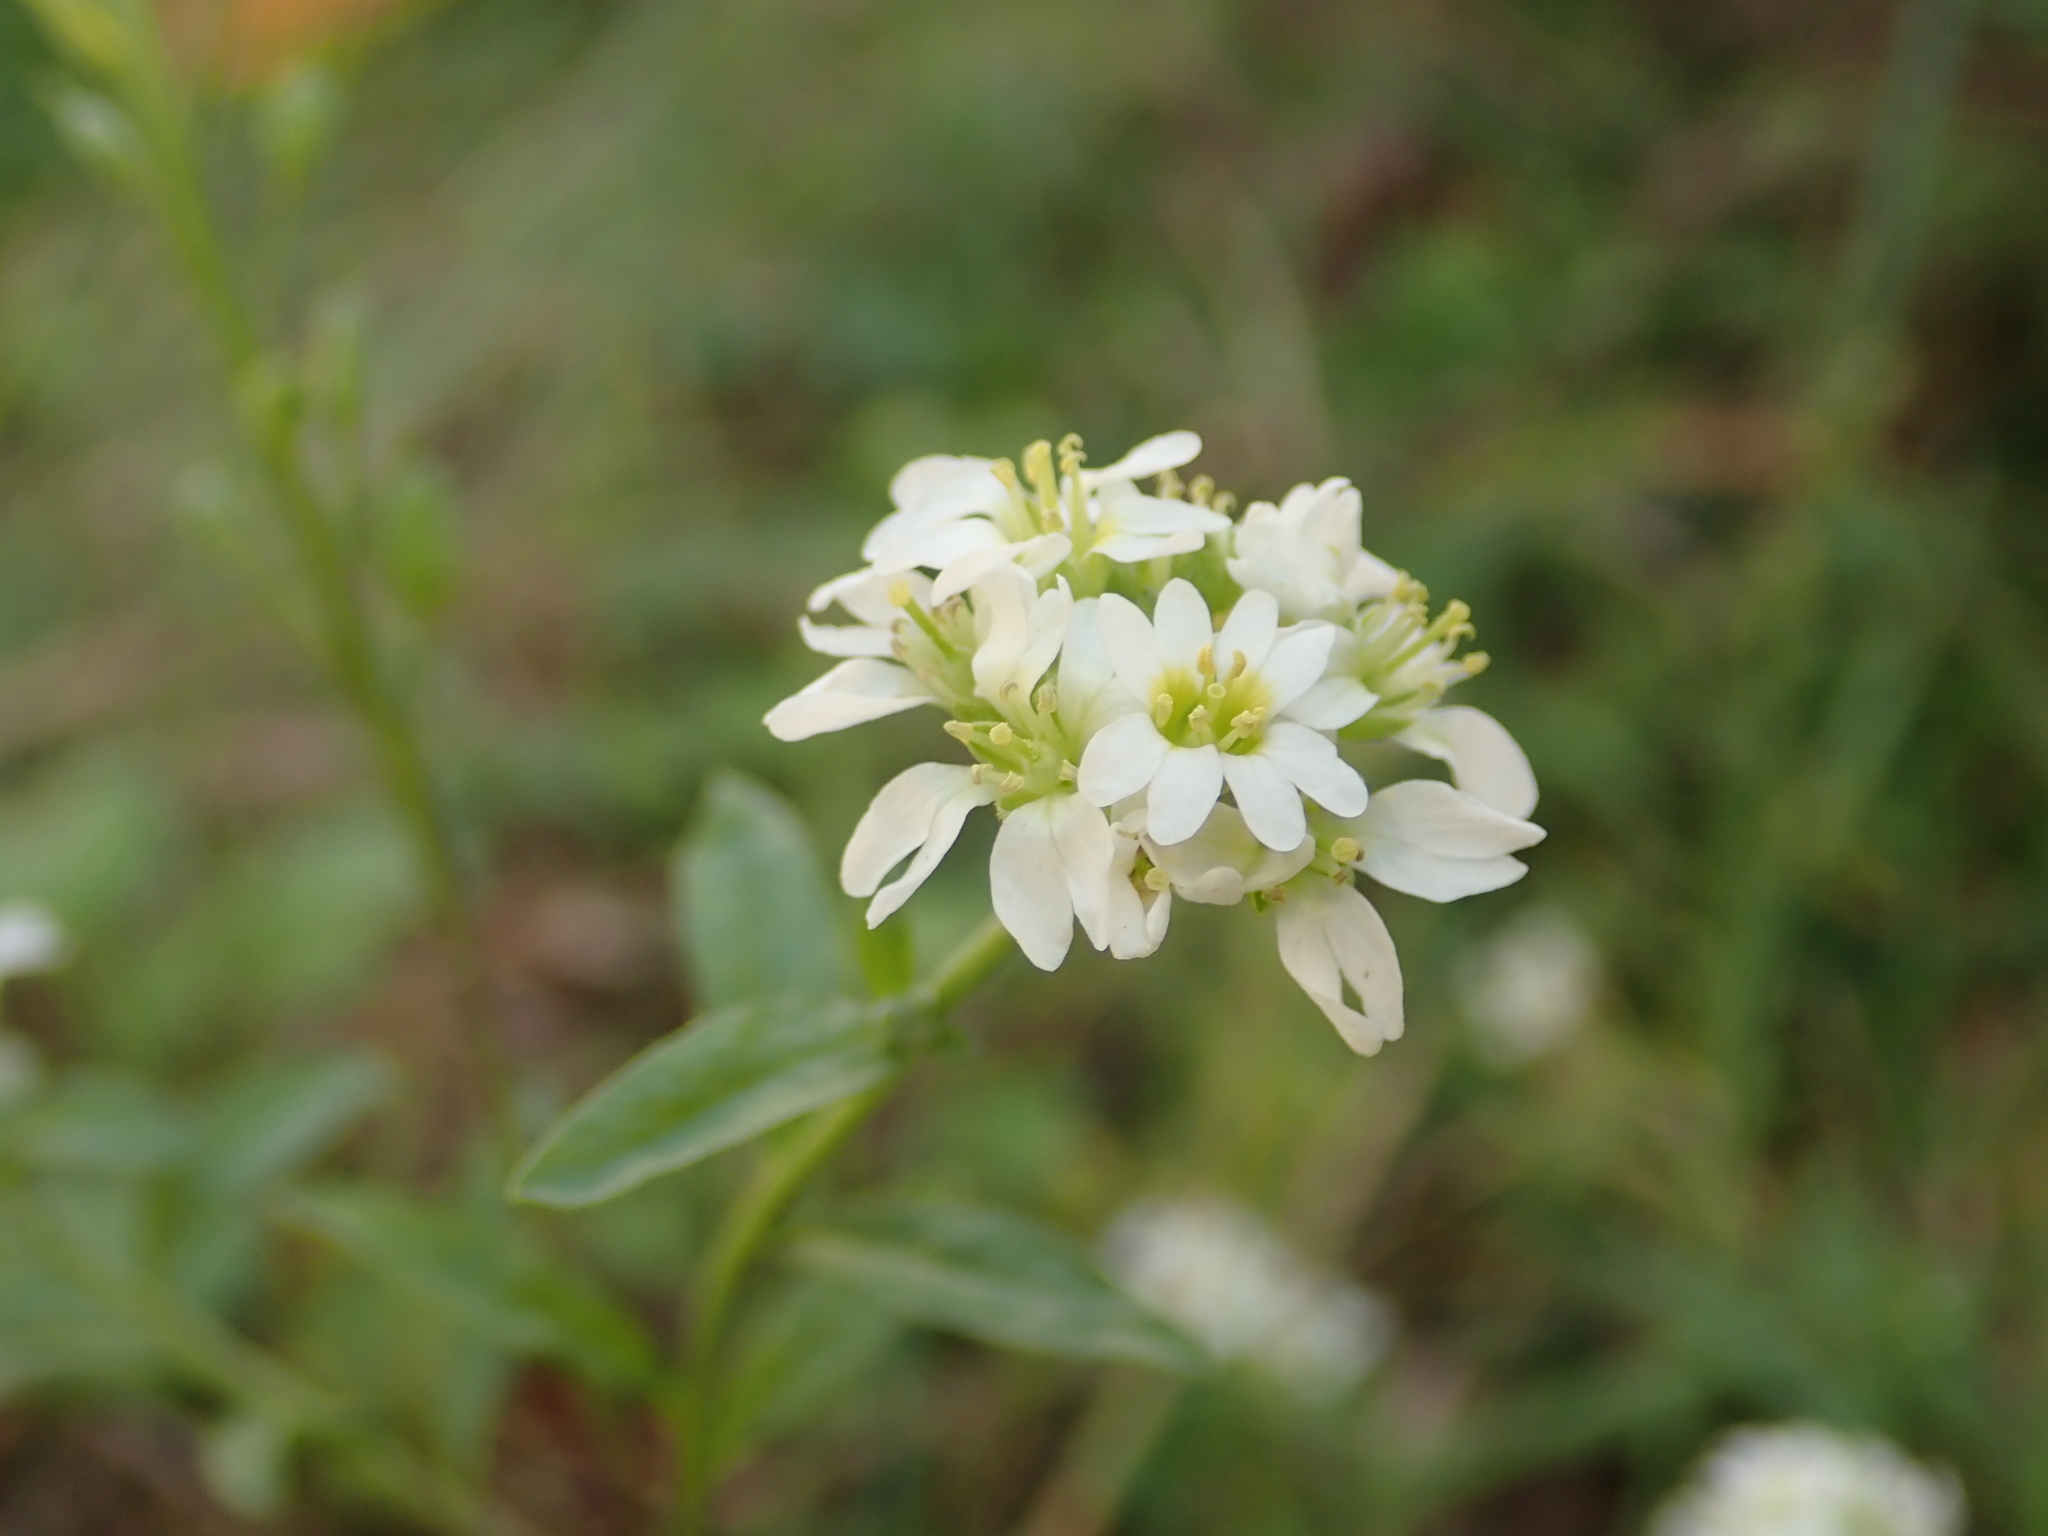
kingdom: Plantae
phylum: Tracheophyta
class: Magnoliopsida
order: Brassicales
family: Brassicaceae
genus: Berteroa
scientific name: Berteroa incana
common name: Hoary alison
